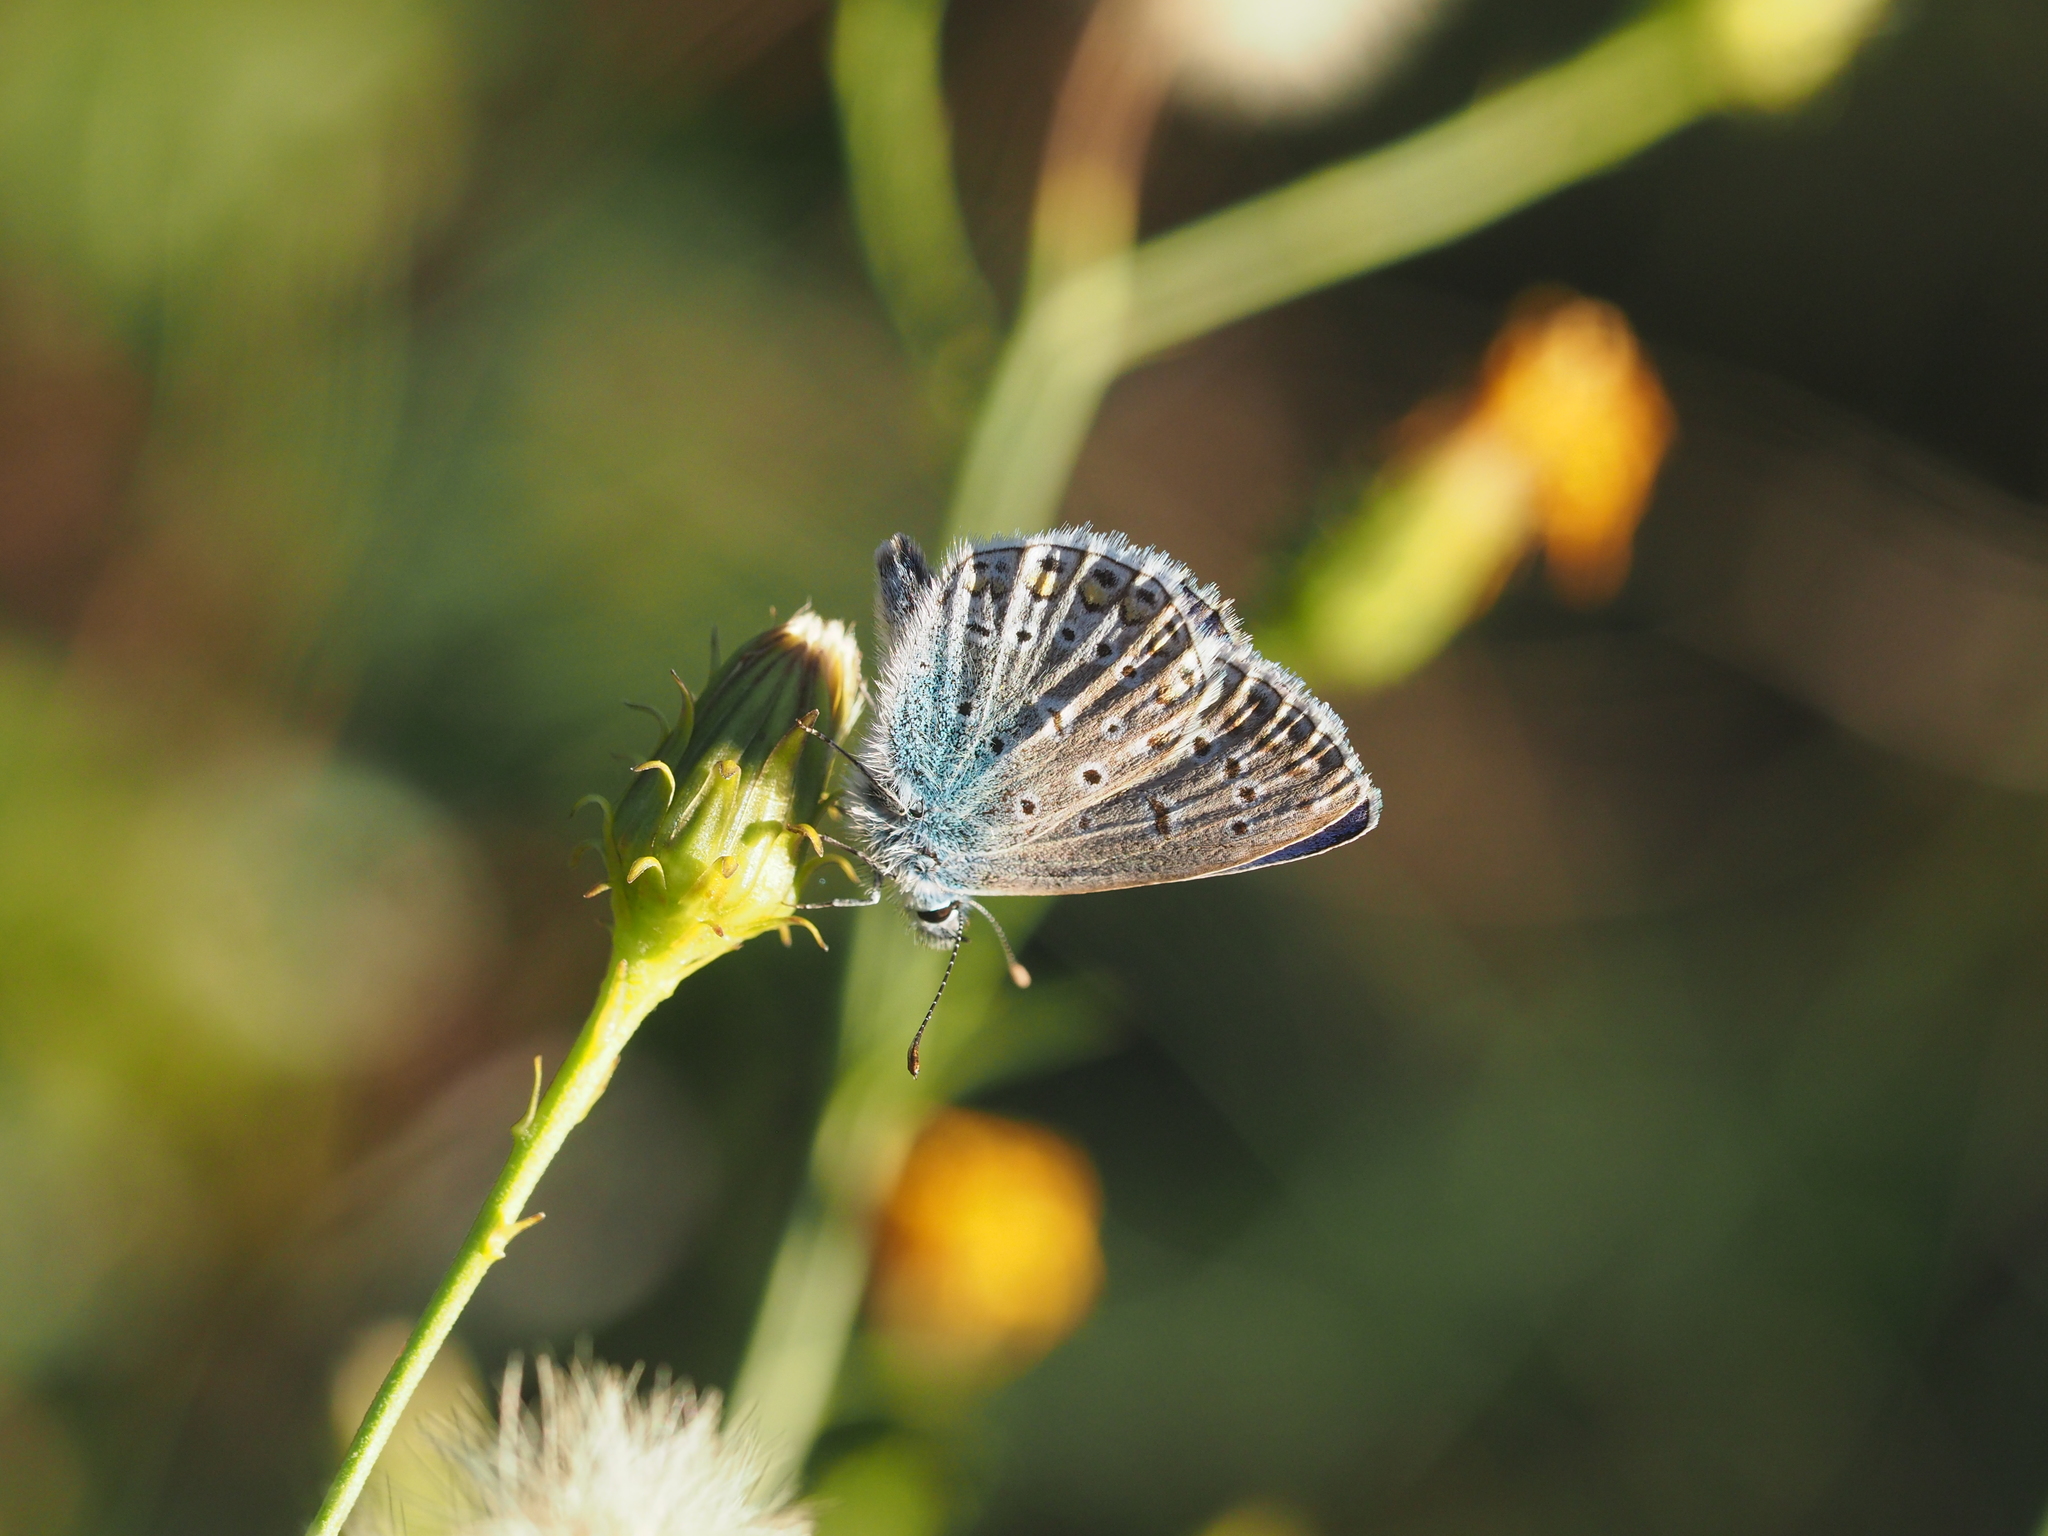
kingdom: Animalia
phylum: Arthropoda
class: Insecta
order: Lepidoptera
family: Lycaenidae
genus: Polyommatus
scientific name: Polyommatus icarus
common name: Common blue
